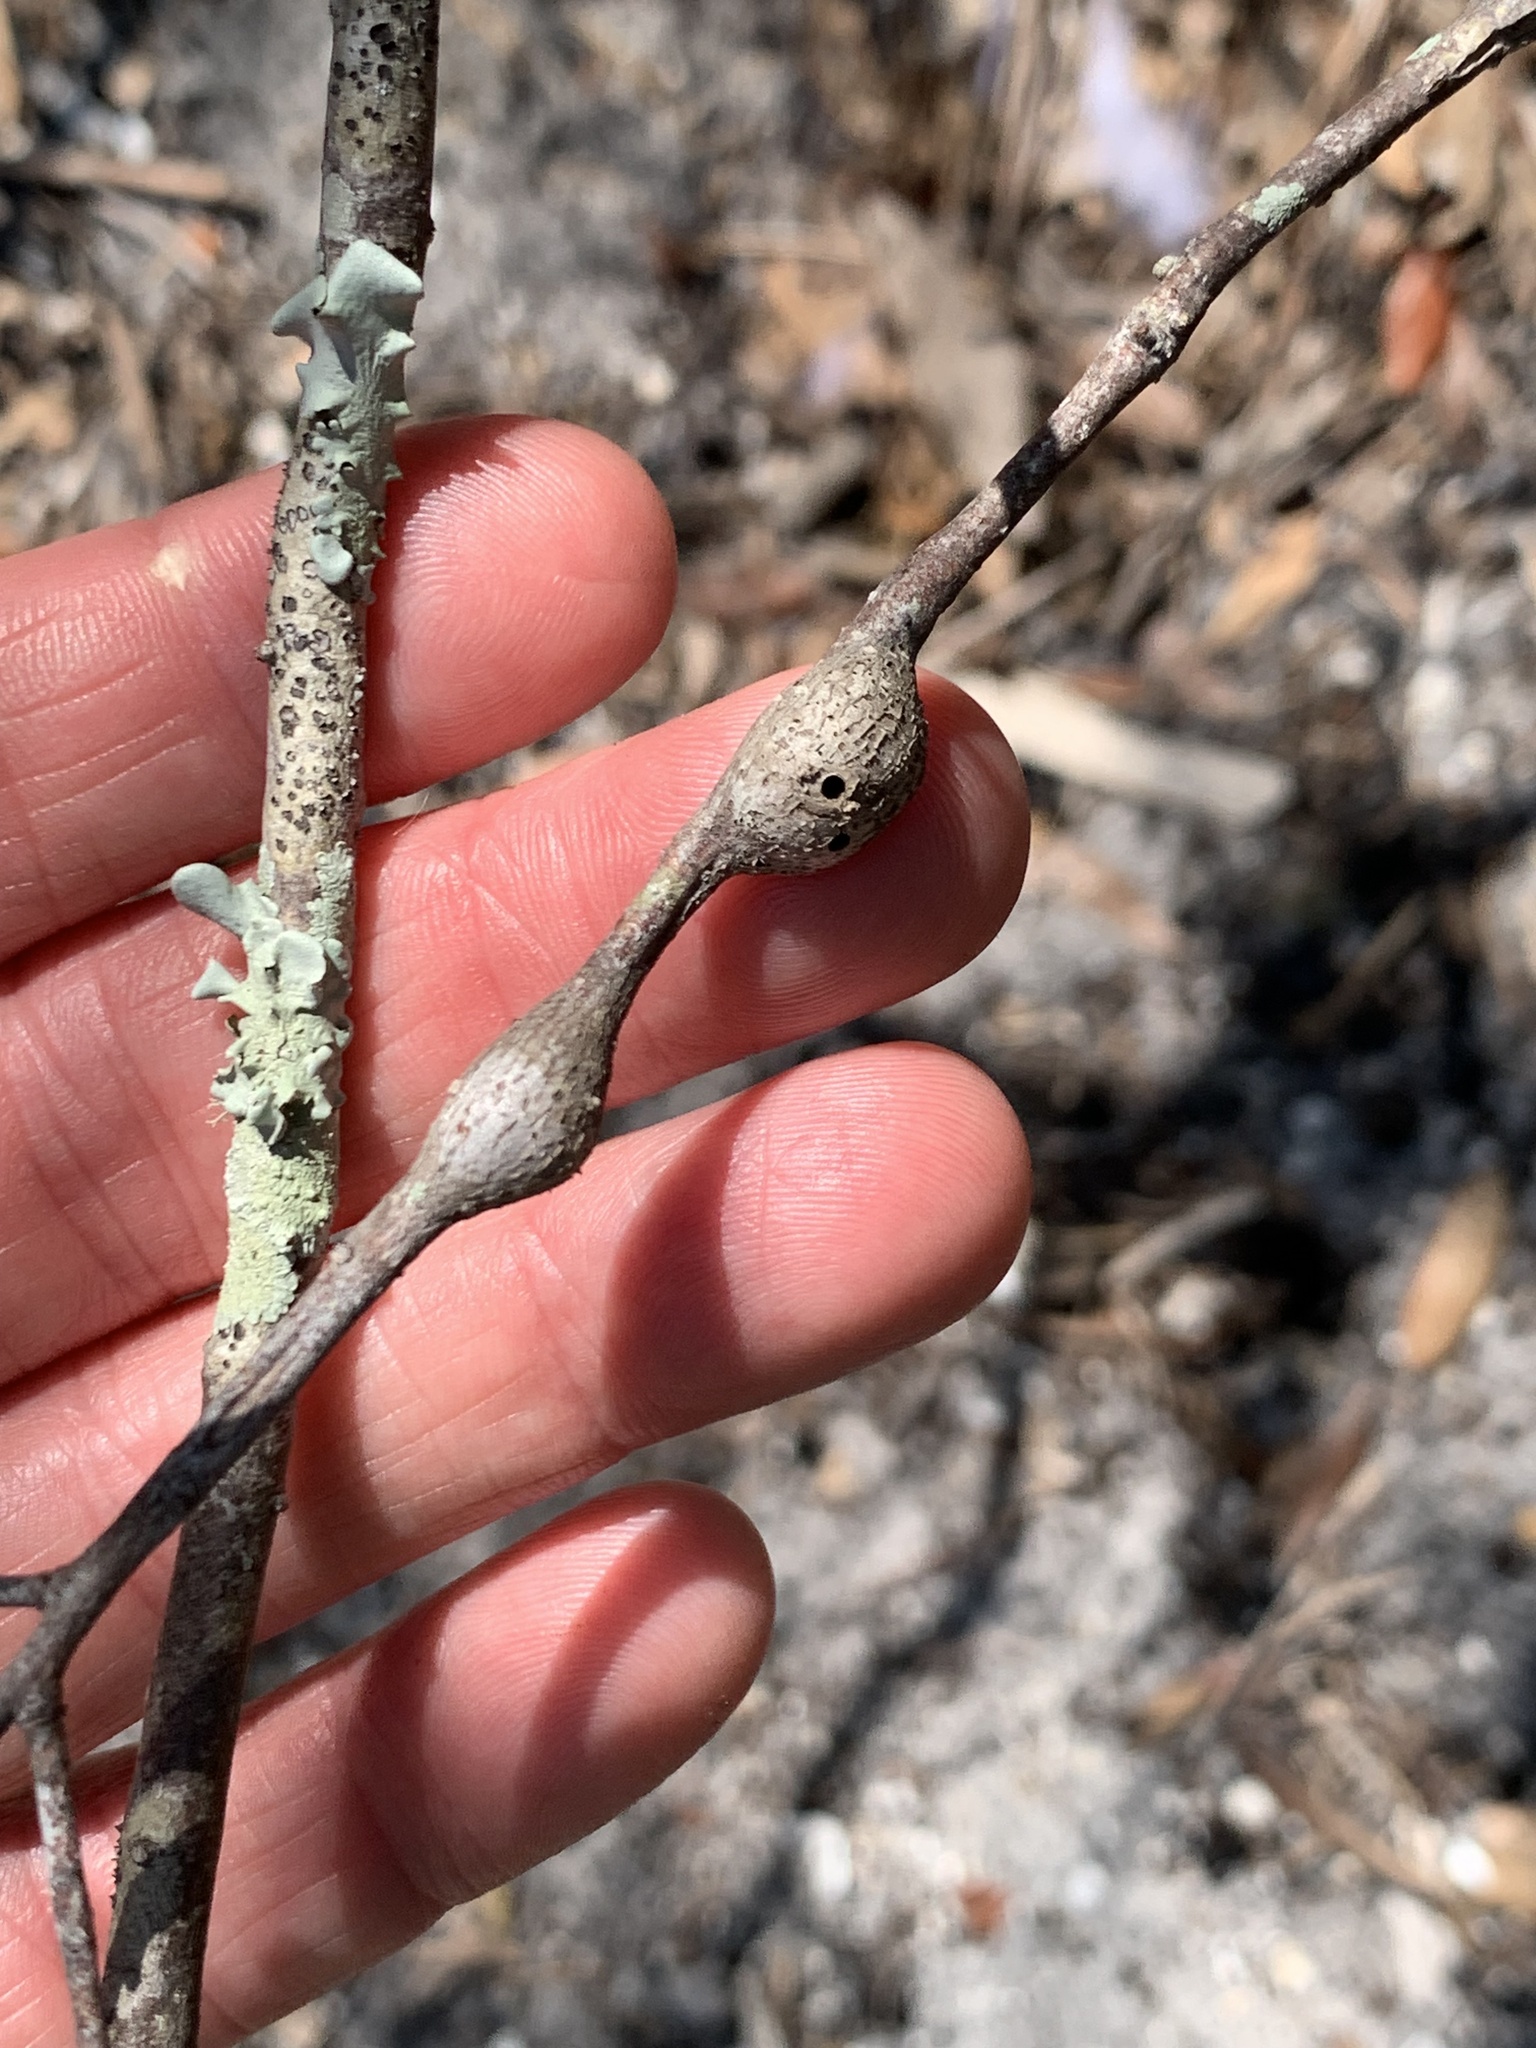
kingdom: Animalia
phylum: Arthropoda
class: Insecta
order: Hymenoptera
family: Cynipidae
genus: Callirhytis
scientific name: Callirhytis
